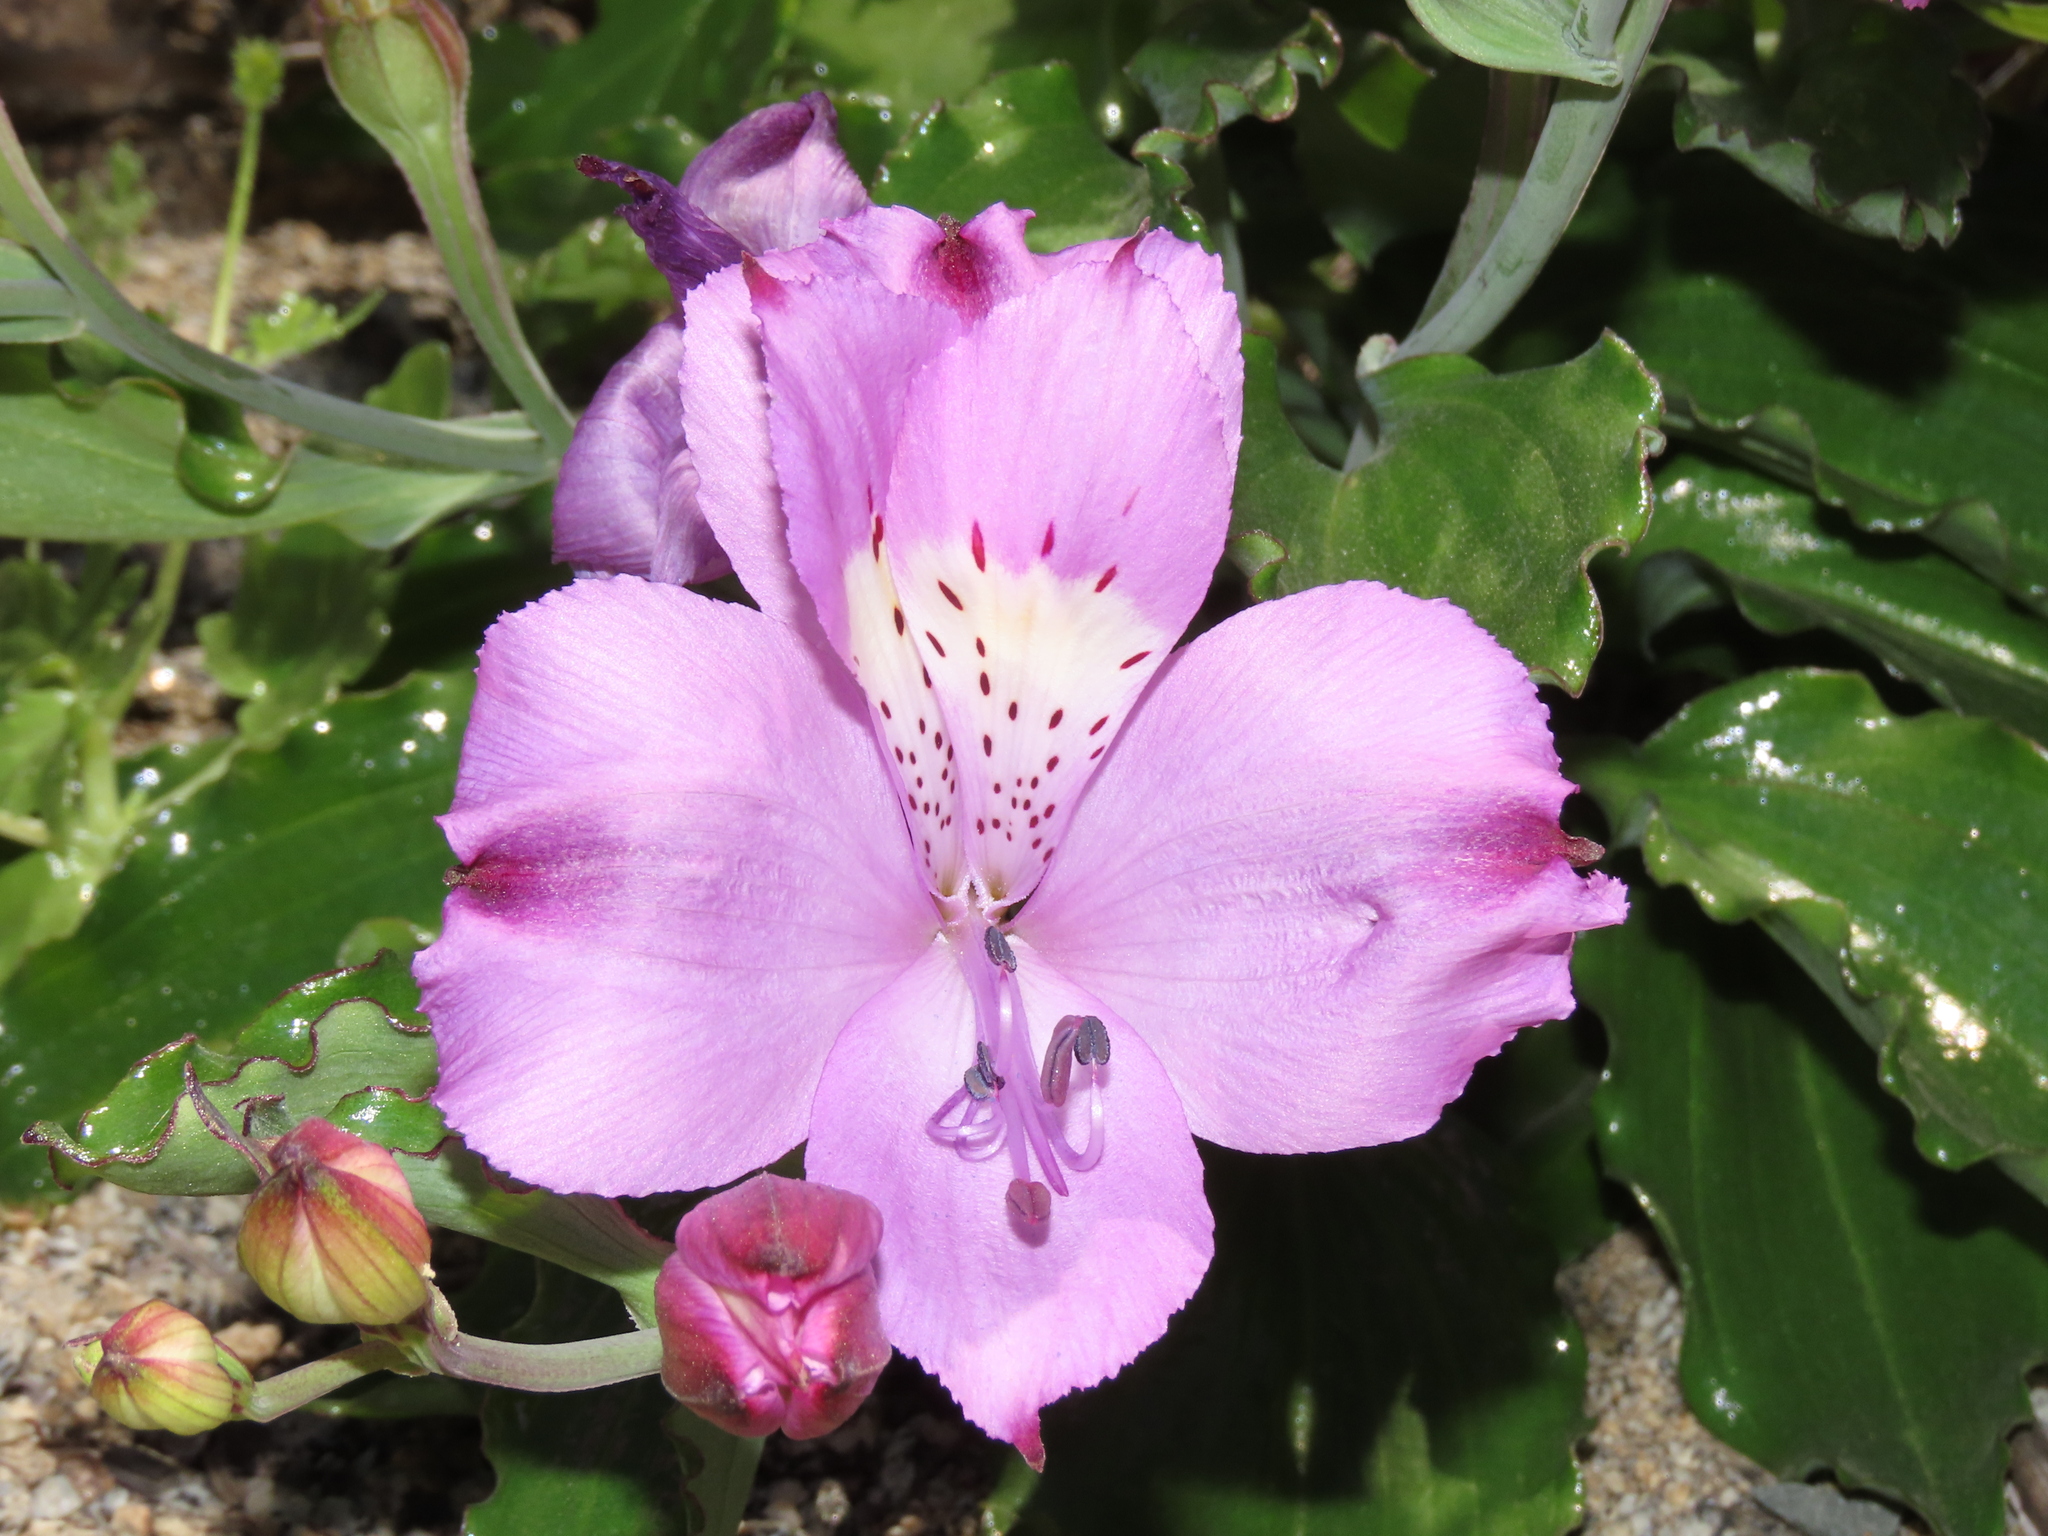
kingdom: Plantae
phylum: Tracheophyta
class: Liliopsida
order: Liliales
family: Alstroemeriaceae
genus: Alstroemeria
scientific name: Alstroemeria violacea
